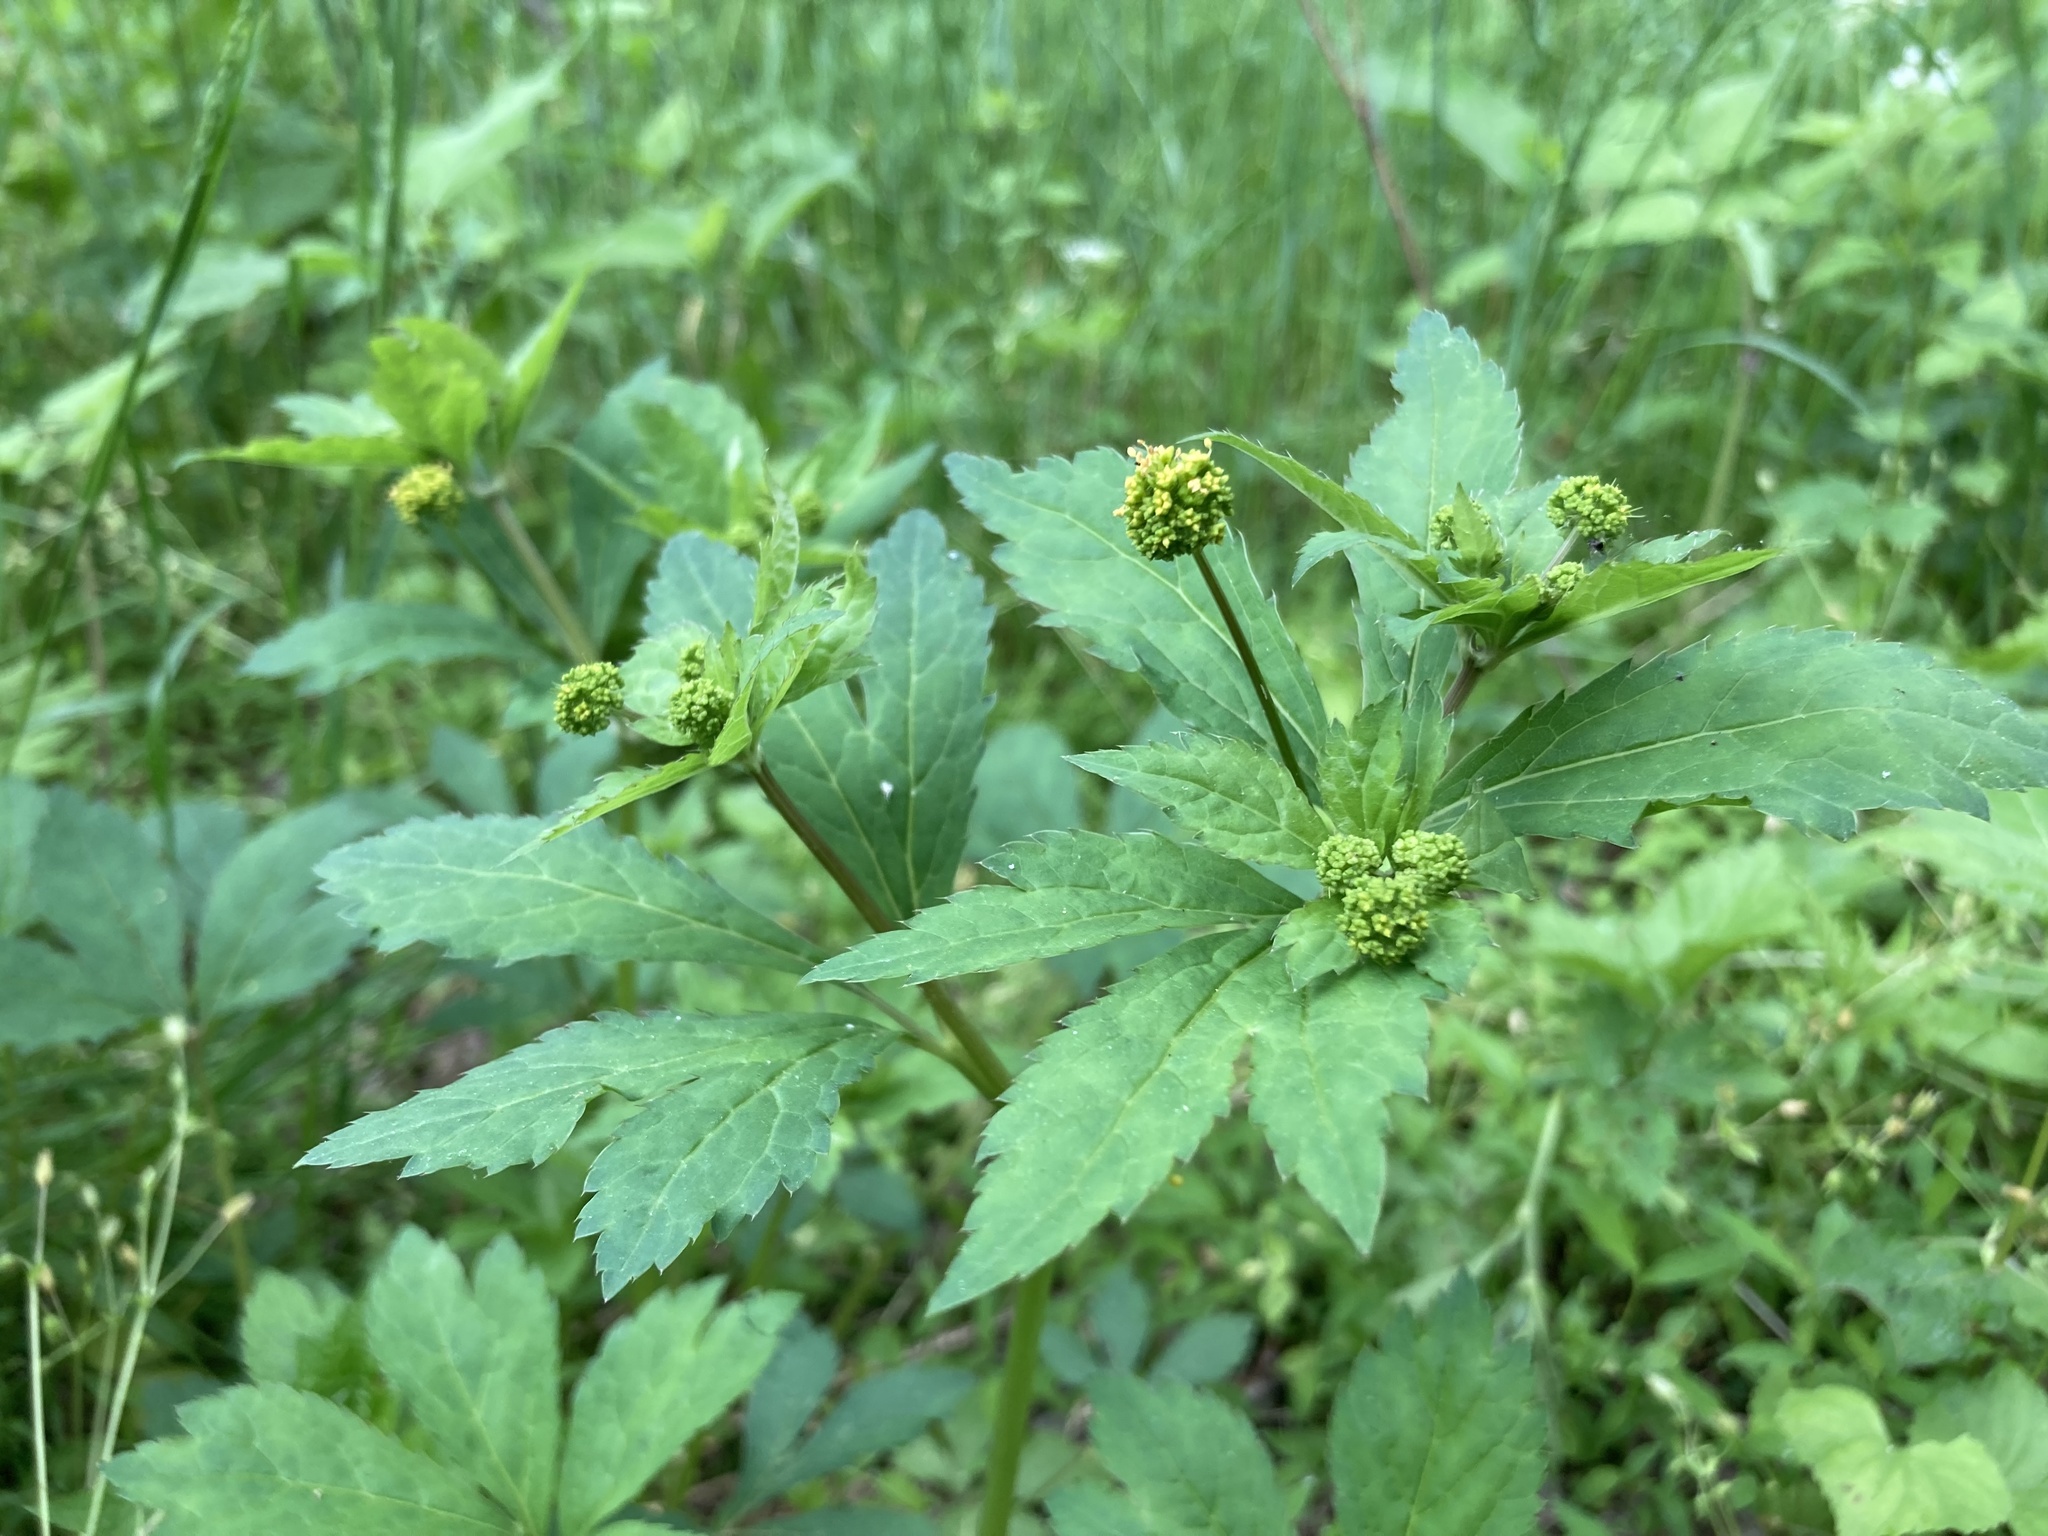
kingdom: Plantae
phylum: Tracheophyta
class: Magnoliopsida
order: Apiales
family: Apiaceae
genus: Sanicula
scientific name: Sanicula odorata
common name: Cluster sanicle
